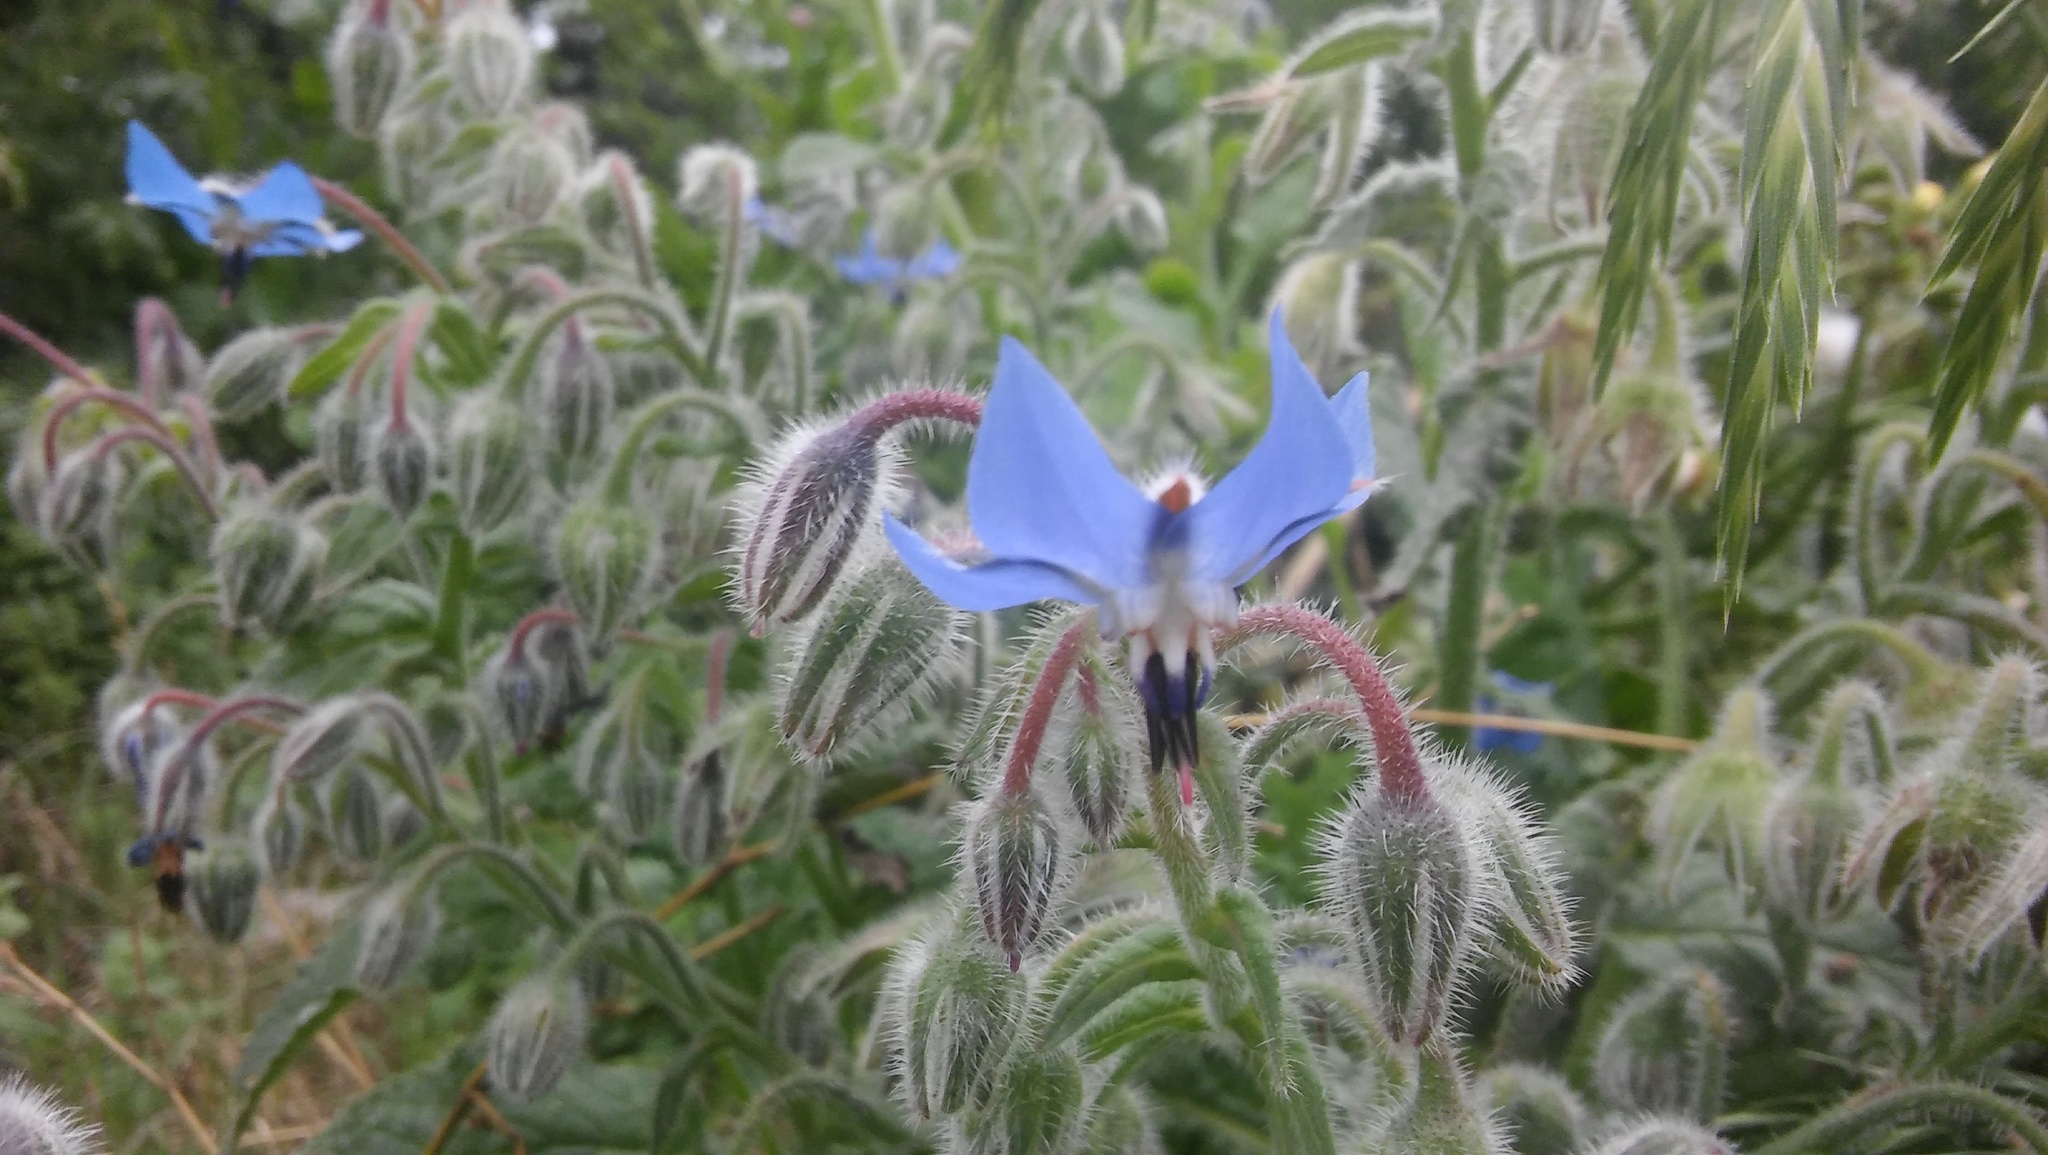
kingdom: Plantae
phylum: Tracheophyta
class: Magnoliopsida
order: Boraginales
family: Boraginaceae
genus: Borago
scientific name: Borago officinalis
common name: Borage
